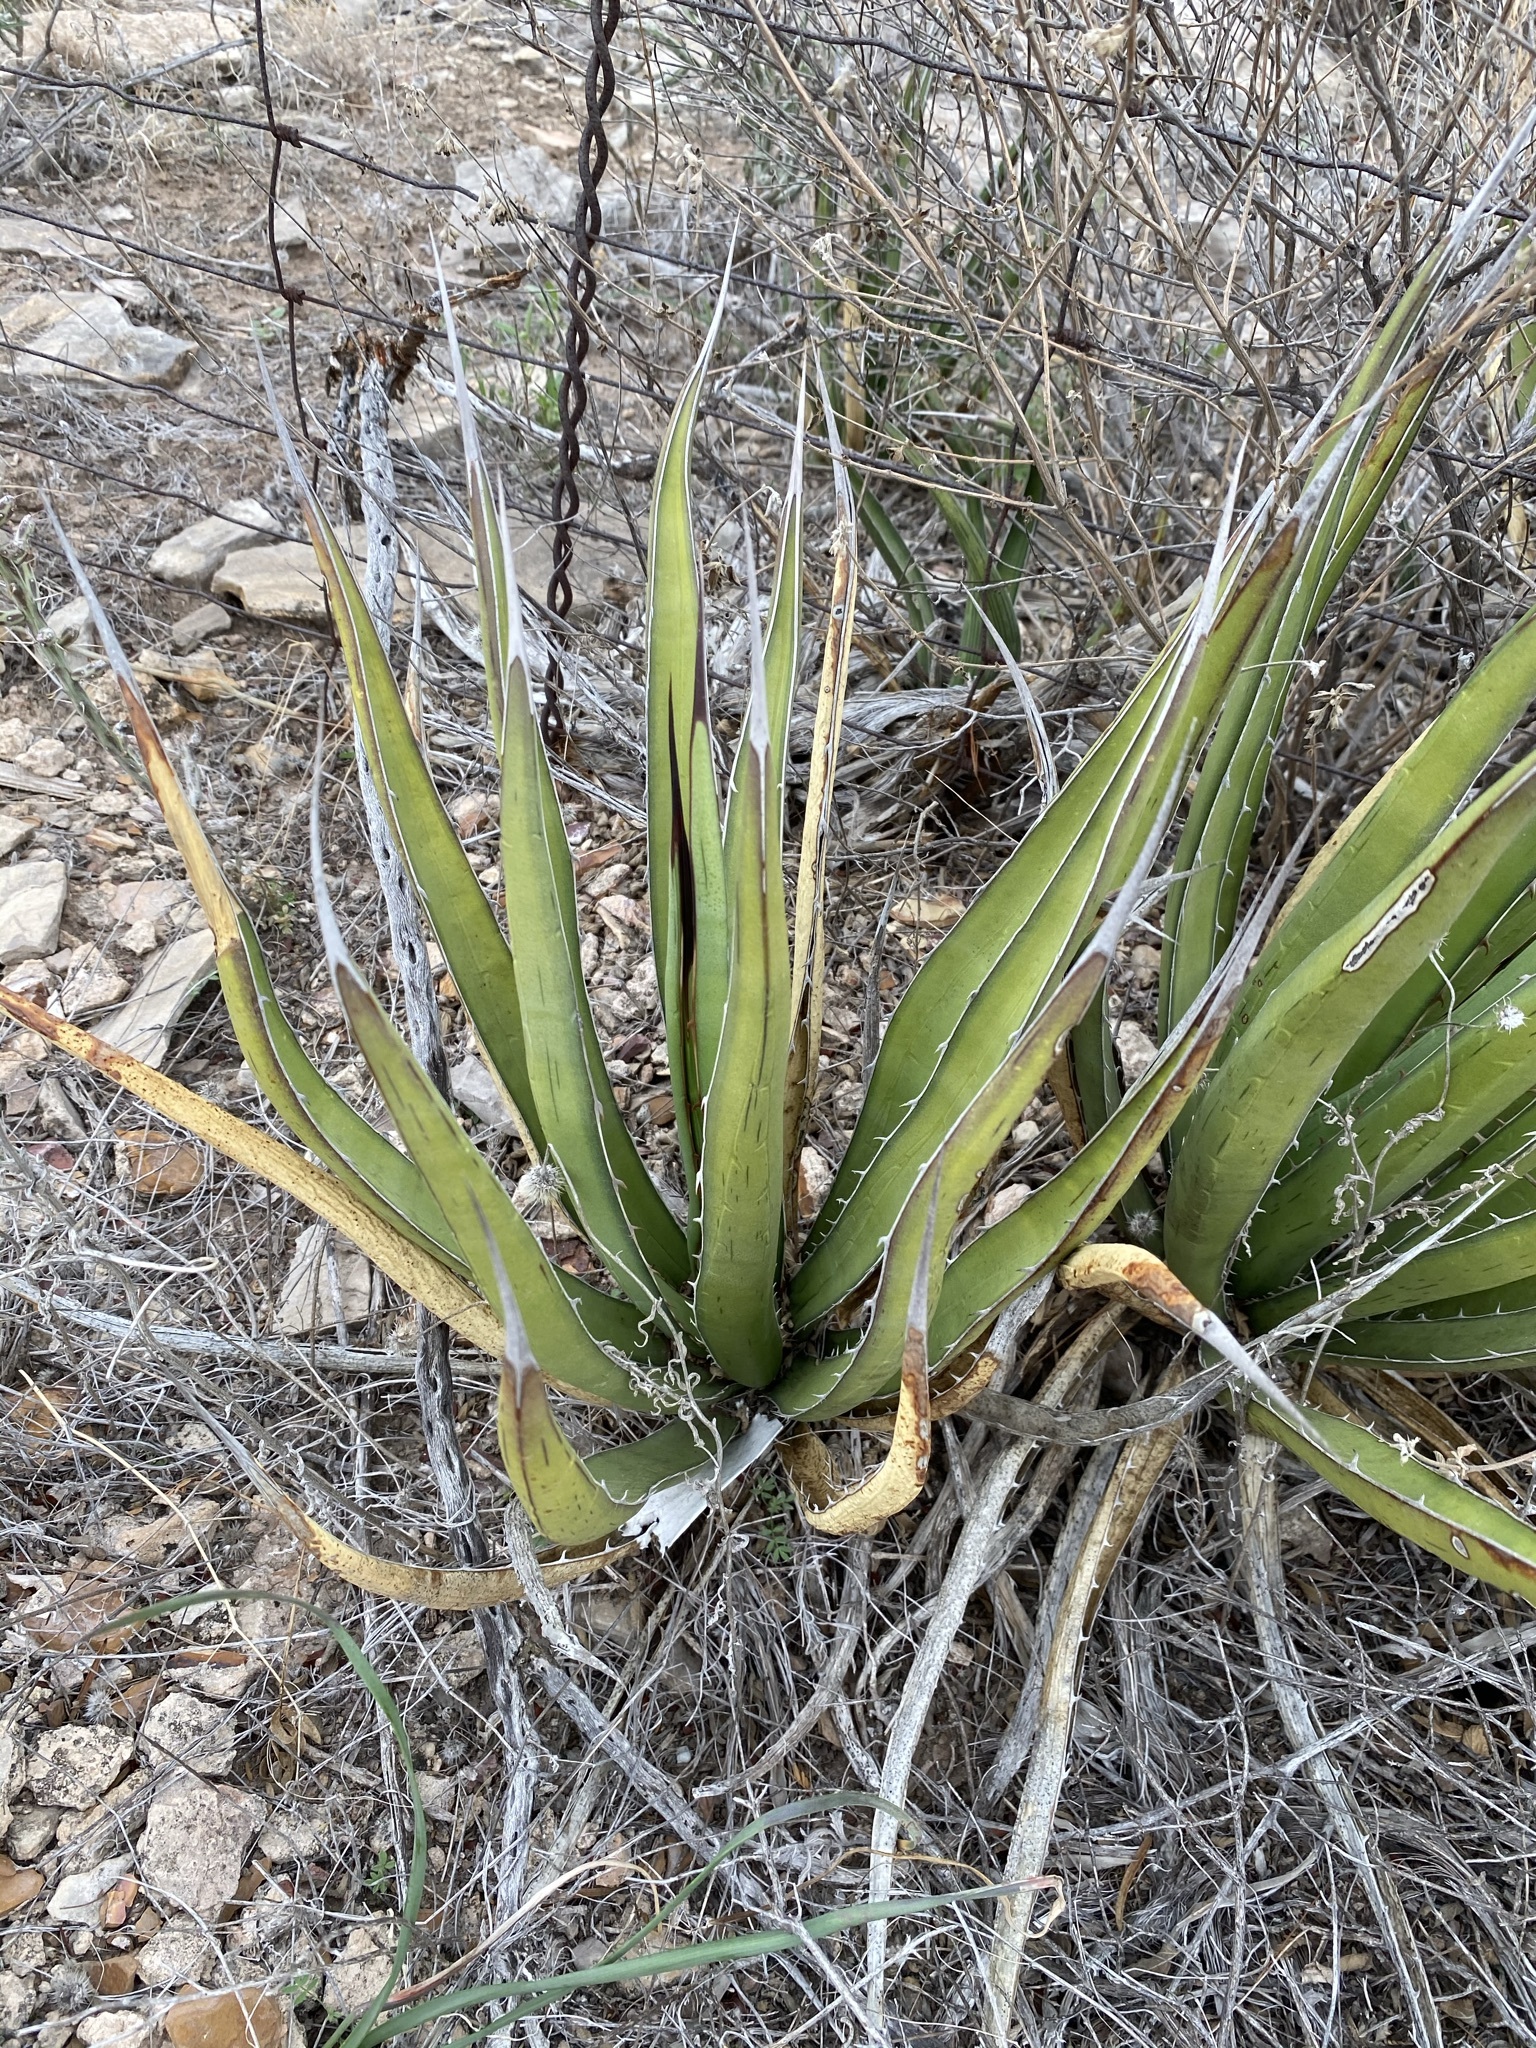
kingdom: Plantae
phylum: Tracheophyta
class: Liliopsida
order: Asparagales
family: Asparagaceae
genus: Agave
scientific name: Agave lechuguilla
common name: Lecheguilla agave
